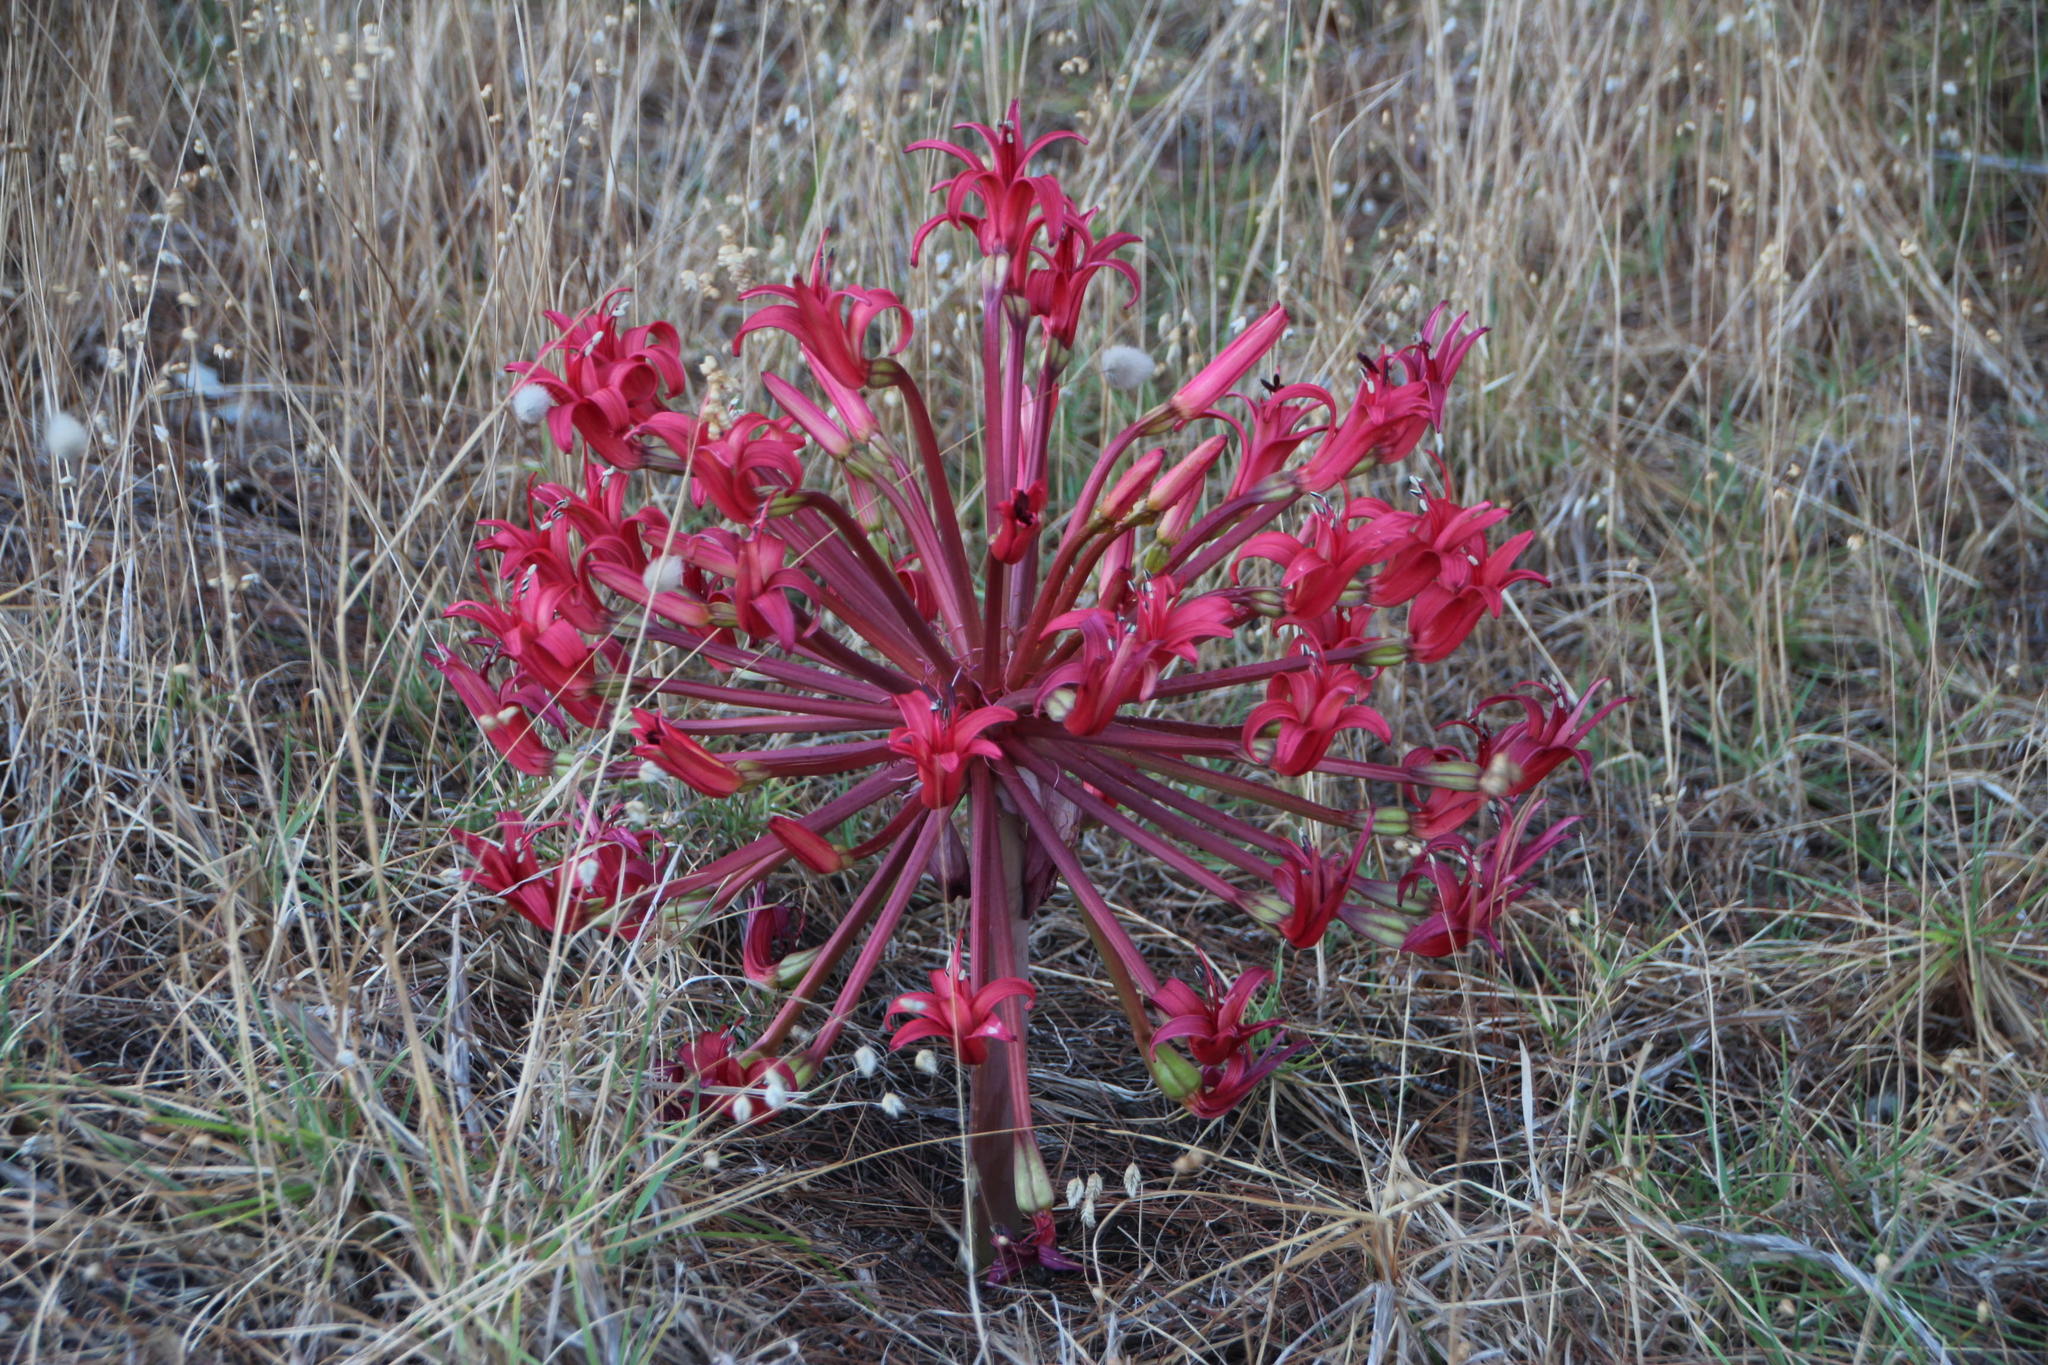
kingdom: Plantae
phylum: Tracheophyta
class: Liliopsida
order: Asparagales
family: Amaryllidaceae
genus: Brunsvigia
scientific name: Brunsvigia orientalis
